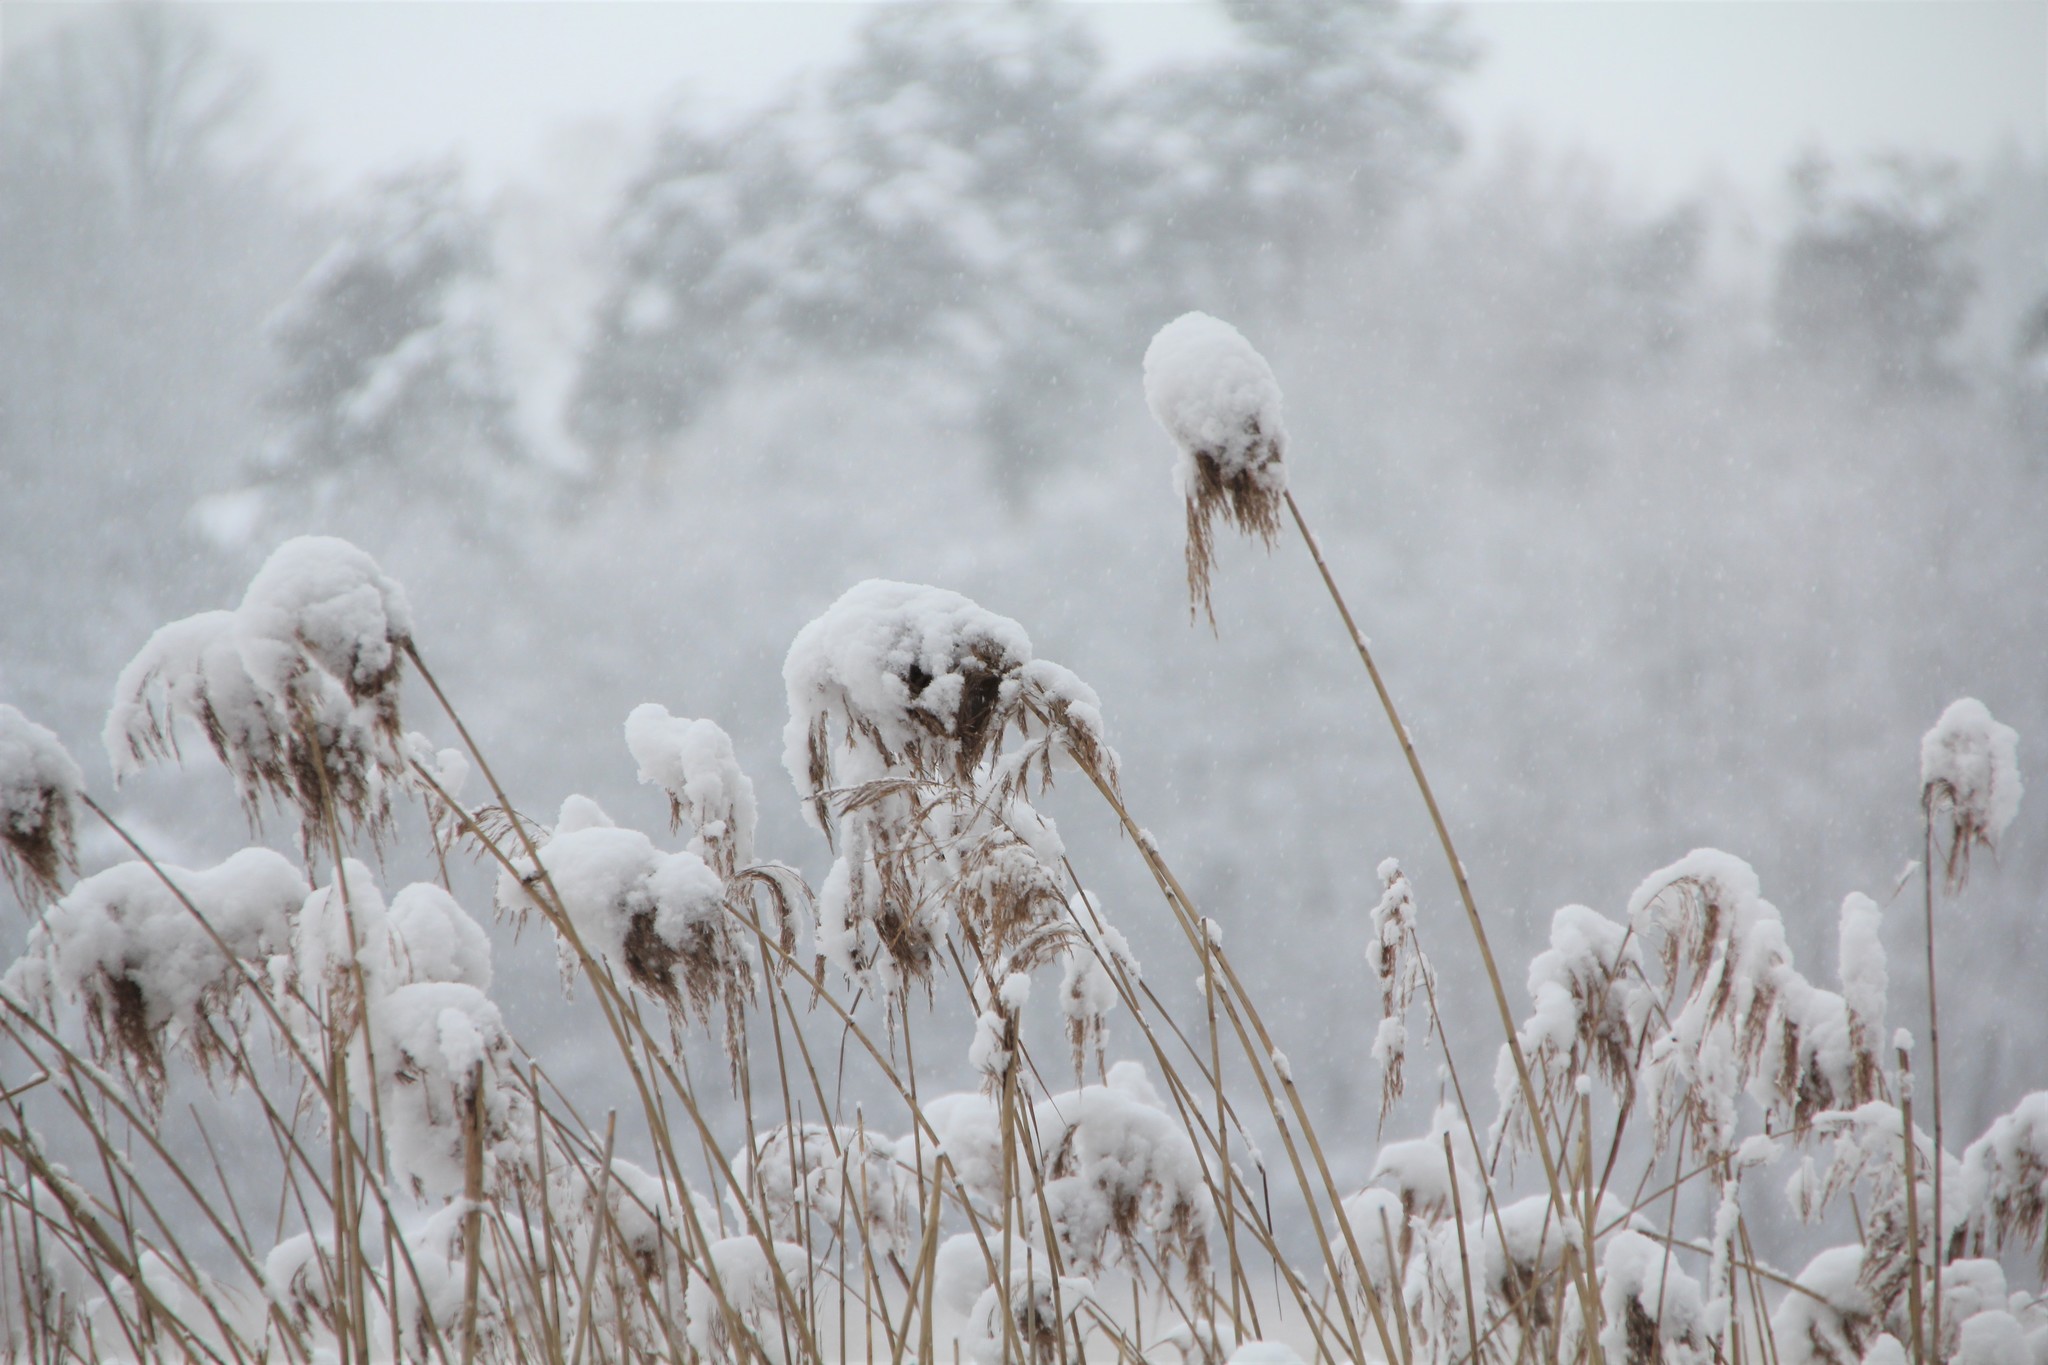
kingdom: Plantae
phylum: Tracheophyta
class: Liliopsida
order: Poales
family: Poaceae
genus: Phragmites
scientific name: Phragmites australis
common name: Common reed
